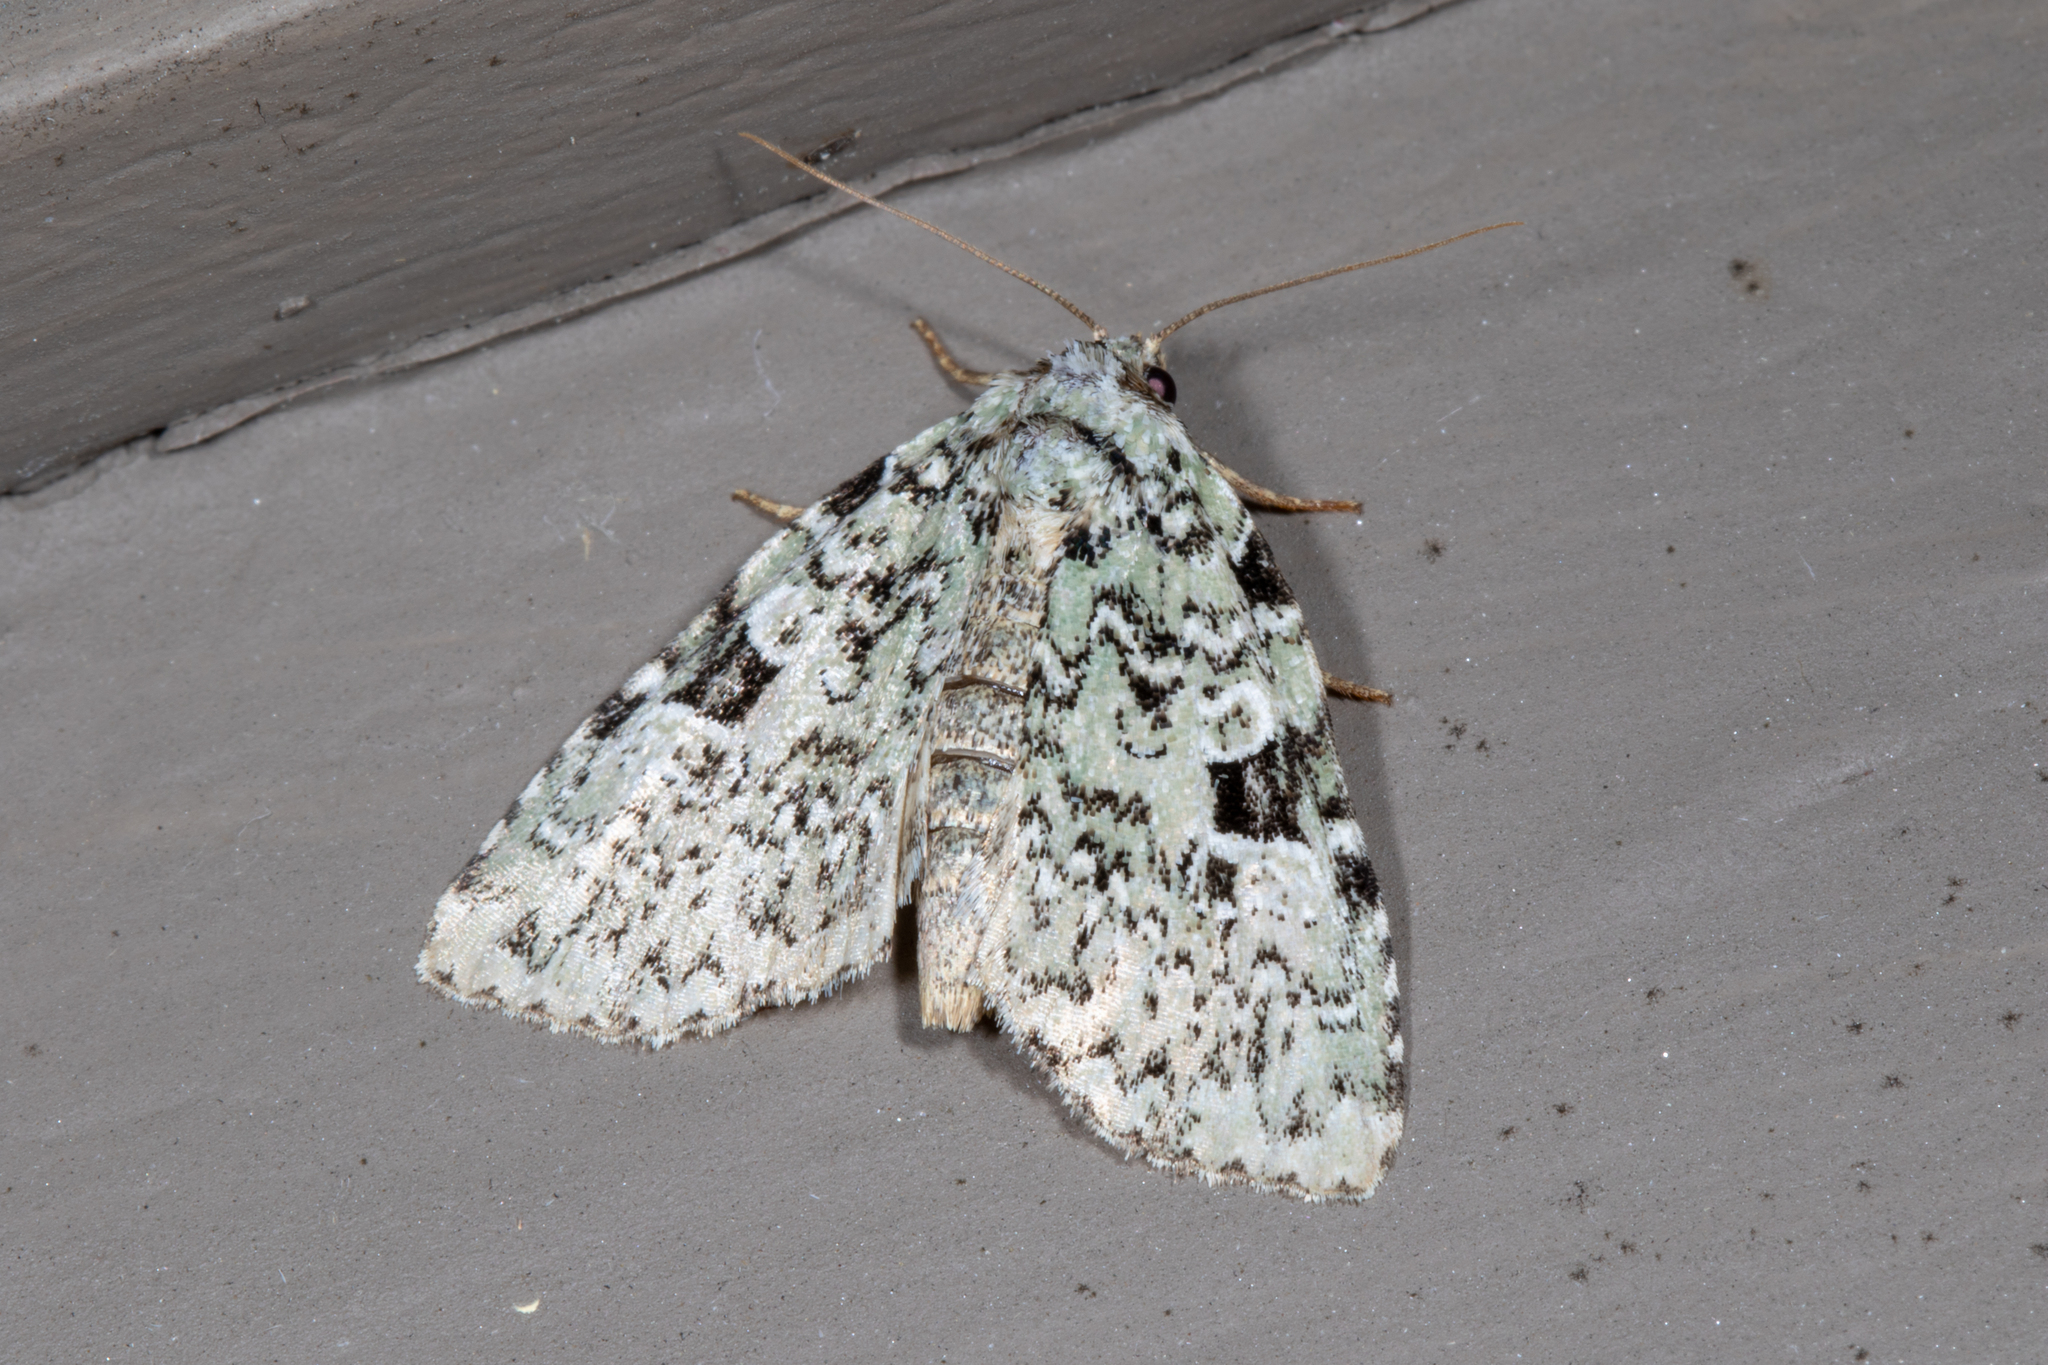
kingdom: Animalia
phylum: Arthropoda
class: Insecta
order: Lepidoptera
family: Noctuidae
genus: Leuconycta
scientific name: Leuconycta diphteroides
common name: Green leuconycta moth
